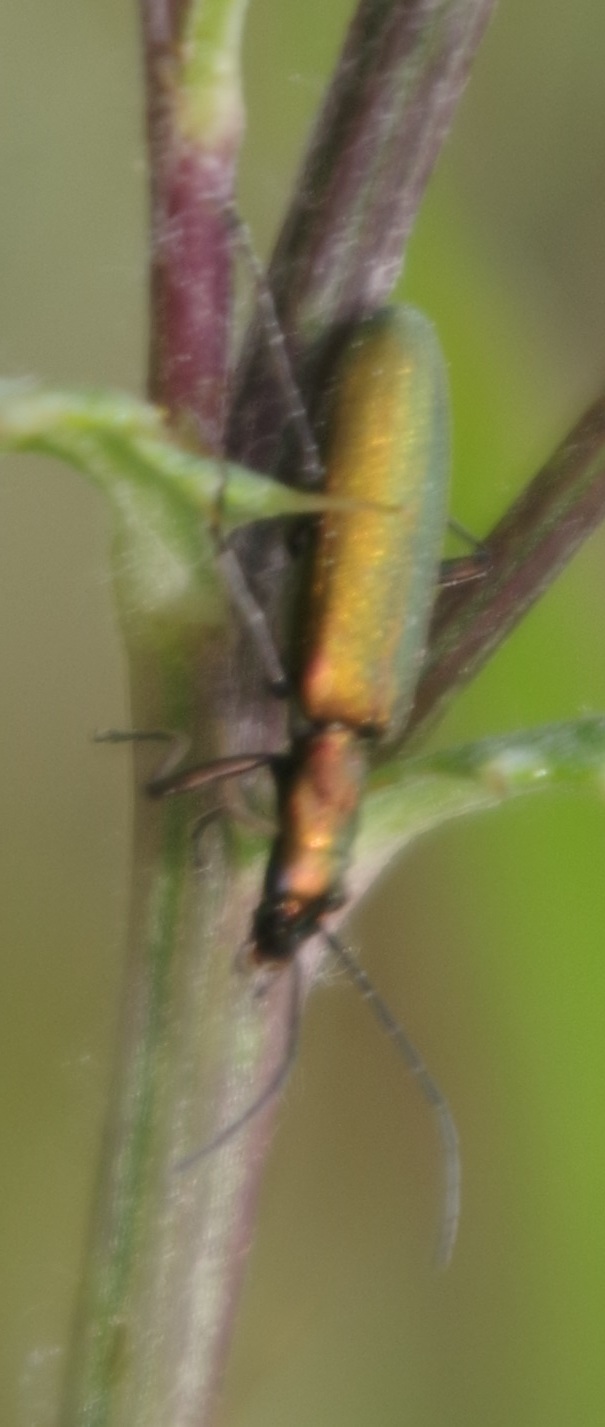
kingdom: Animalia
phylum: Arthropoda
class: Insecta
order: Coleoptera
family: Oedemeridae
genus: Chrysanthia
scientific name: Chrysanthia viridissima
